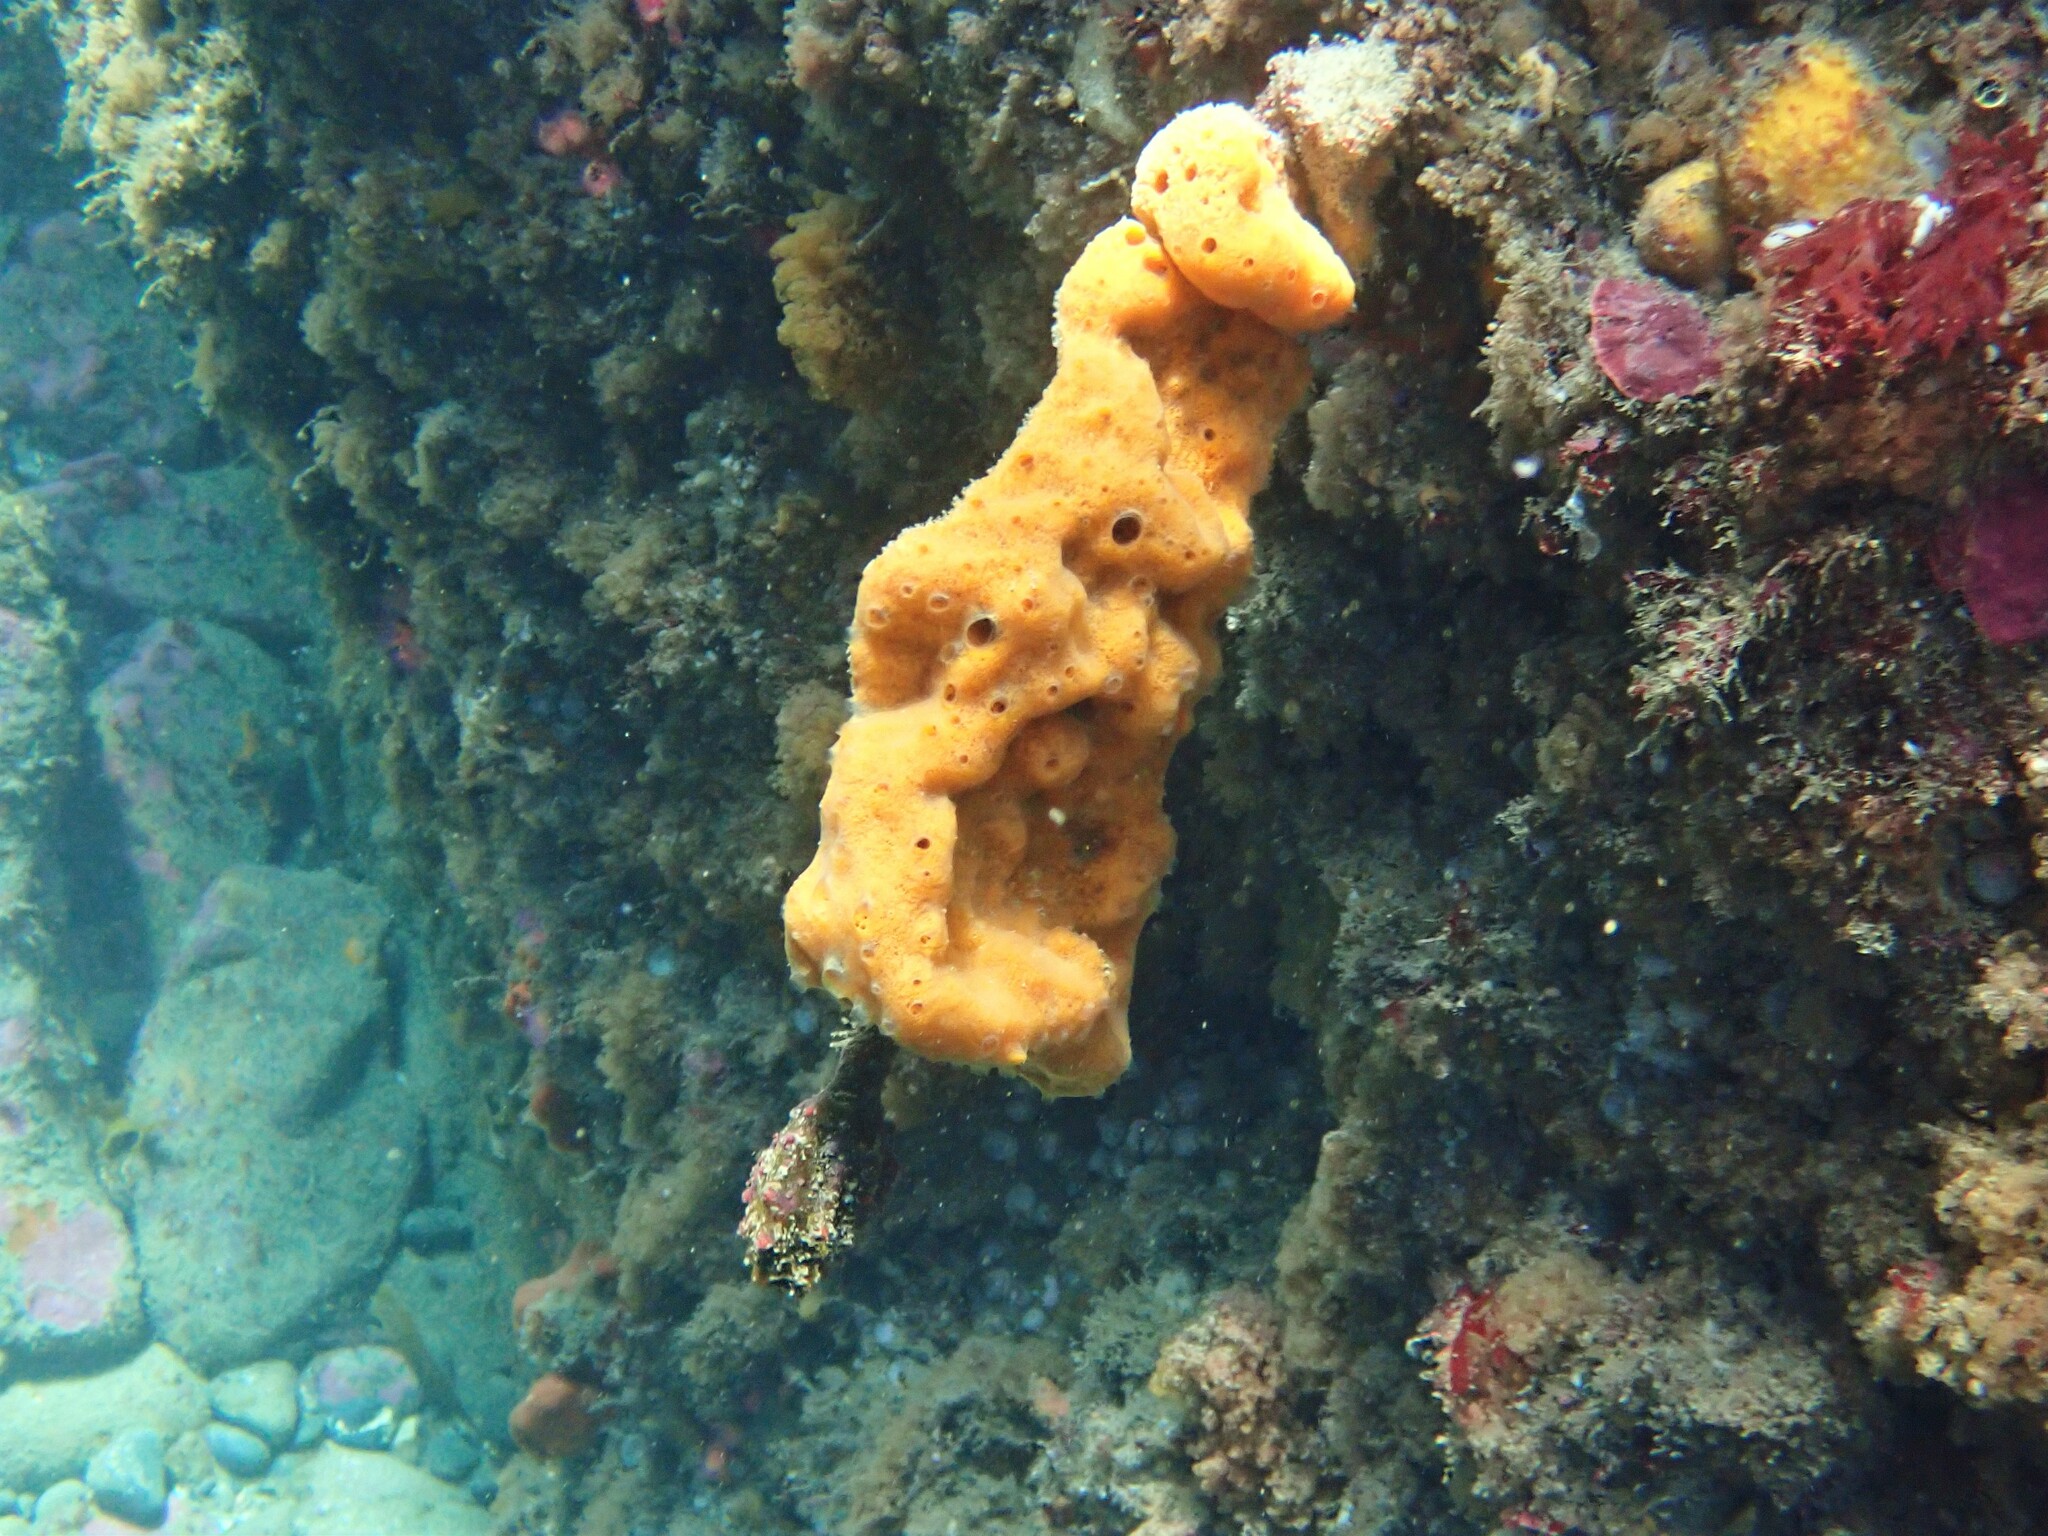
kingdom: Animalia
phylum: Chordata
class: Ascidiacea
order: Stolidobranchia
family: Pyuridae
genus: Pyura
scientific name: Pyura pachydermatina
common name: Sea tulip
